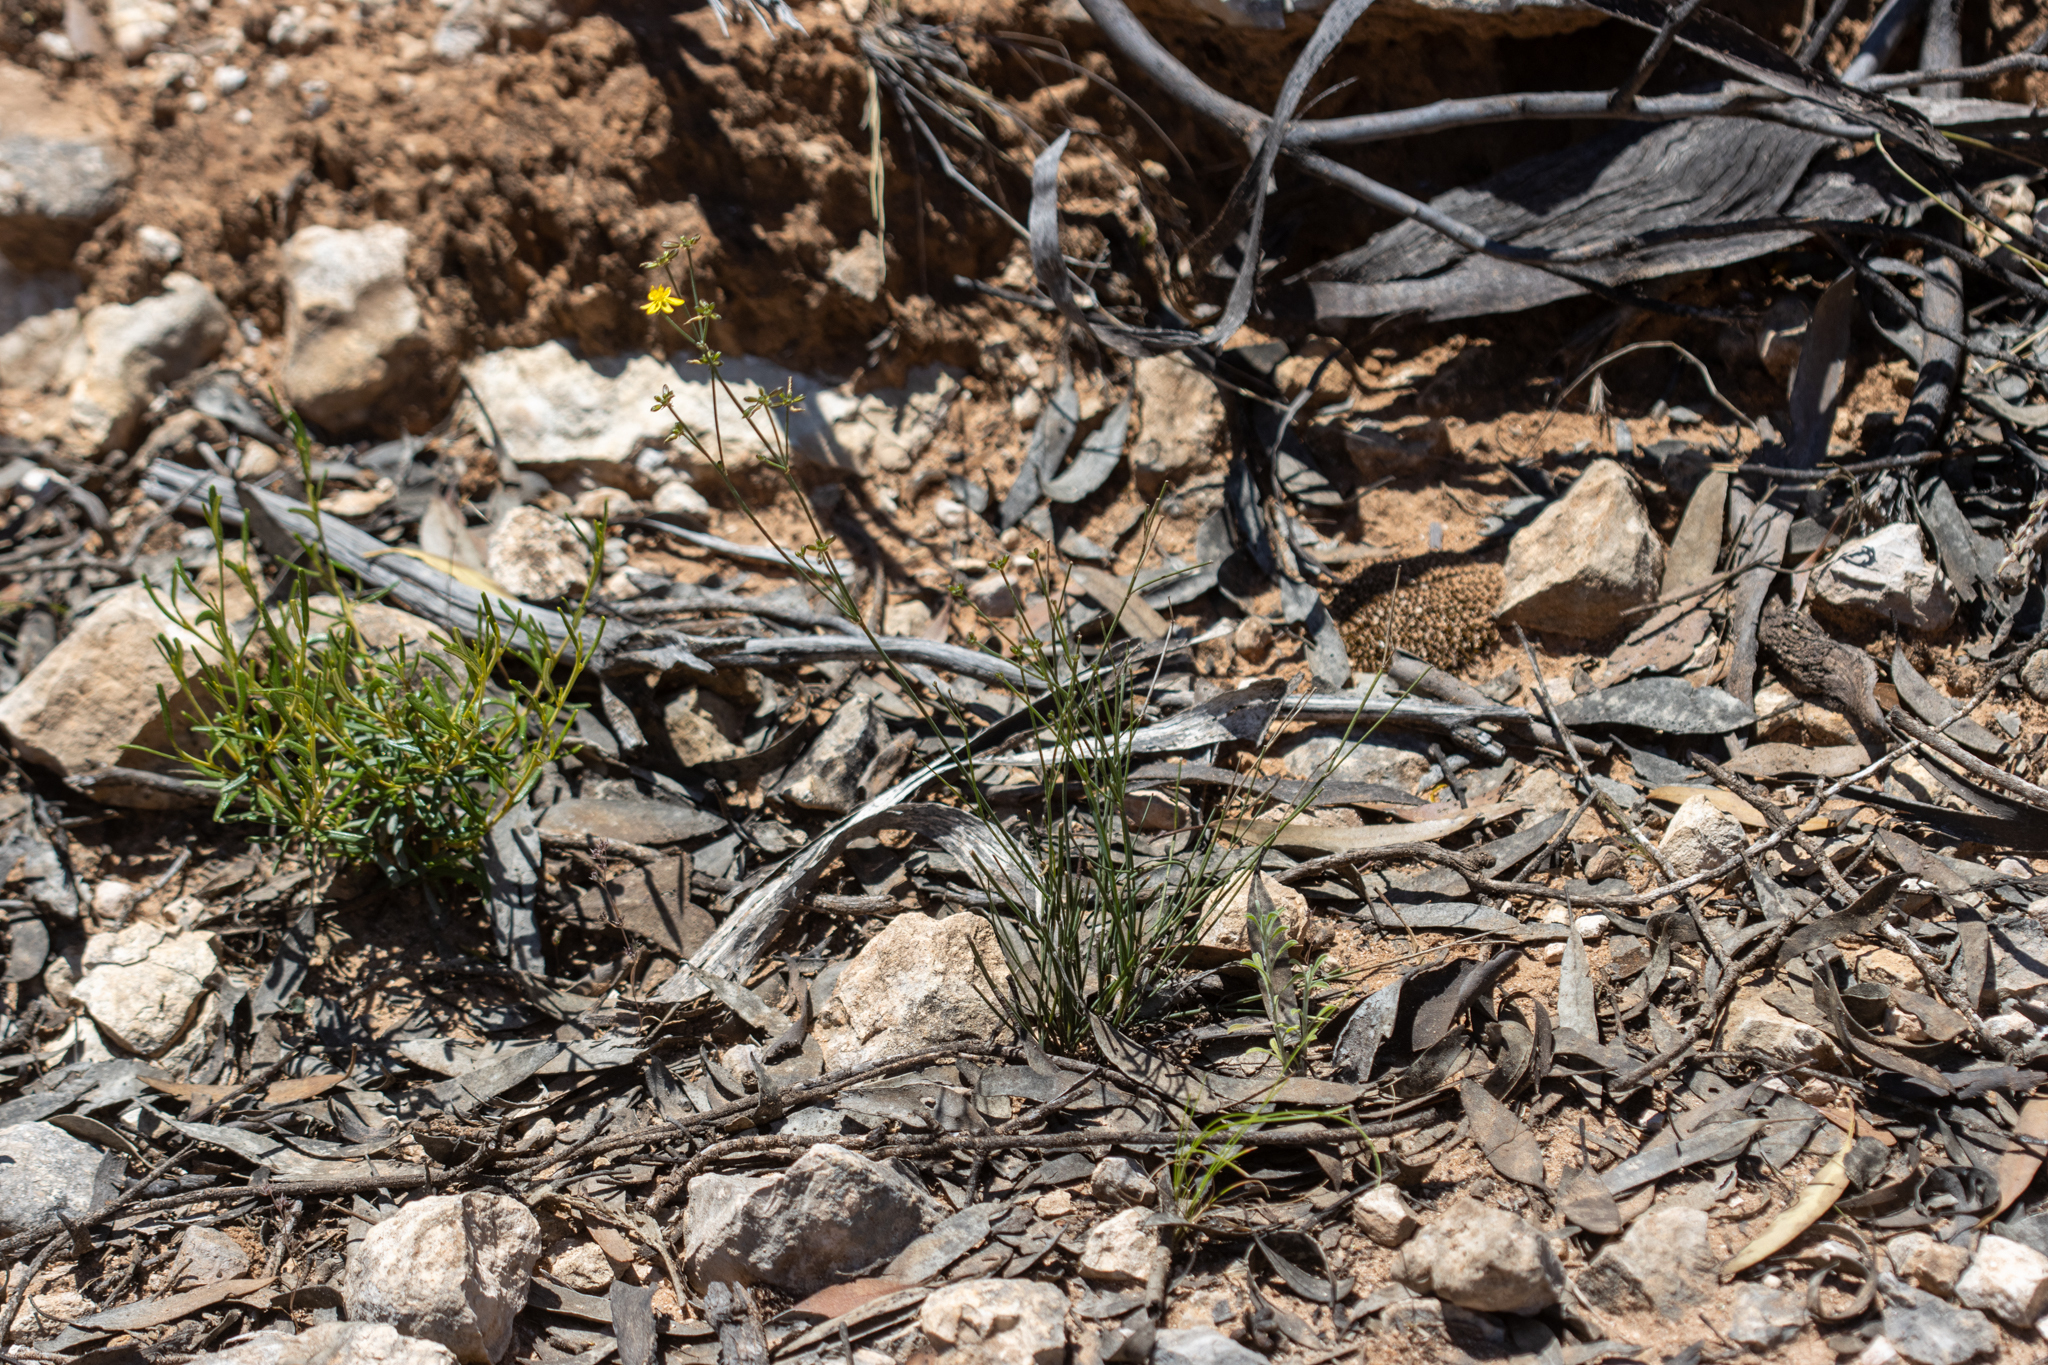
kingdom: Plantae
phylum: Tracheophyta
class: Liliopsida
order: Asparagales
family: Asphodelaceae
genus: Tricoryne
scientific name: Tricoryne elatior
